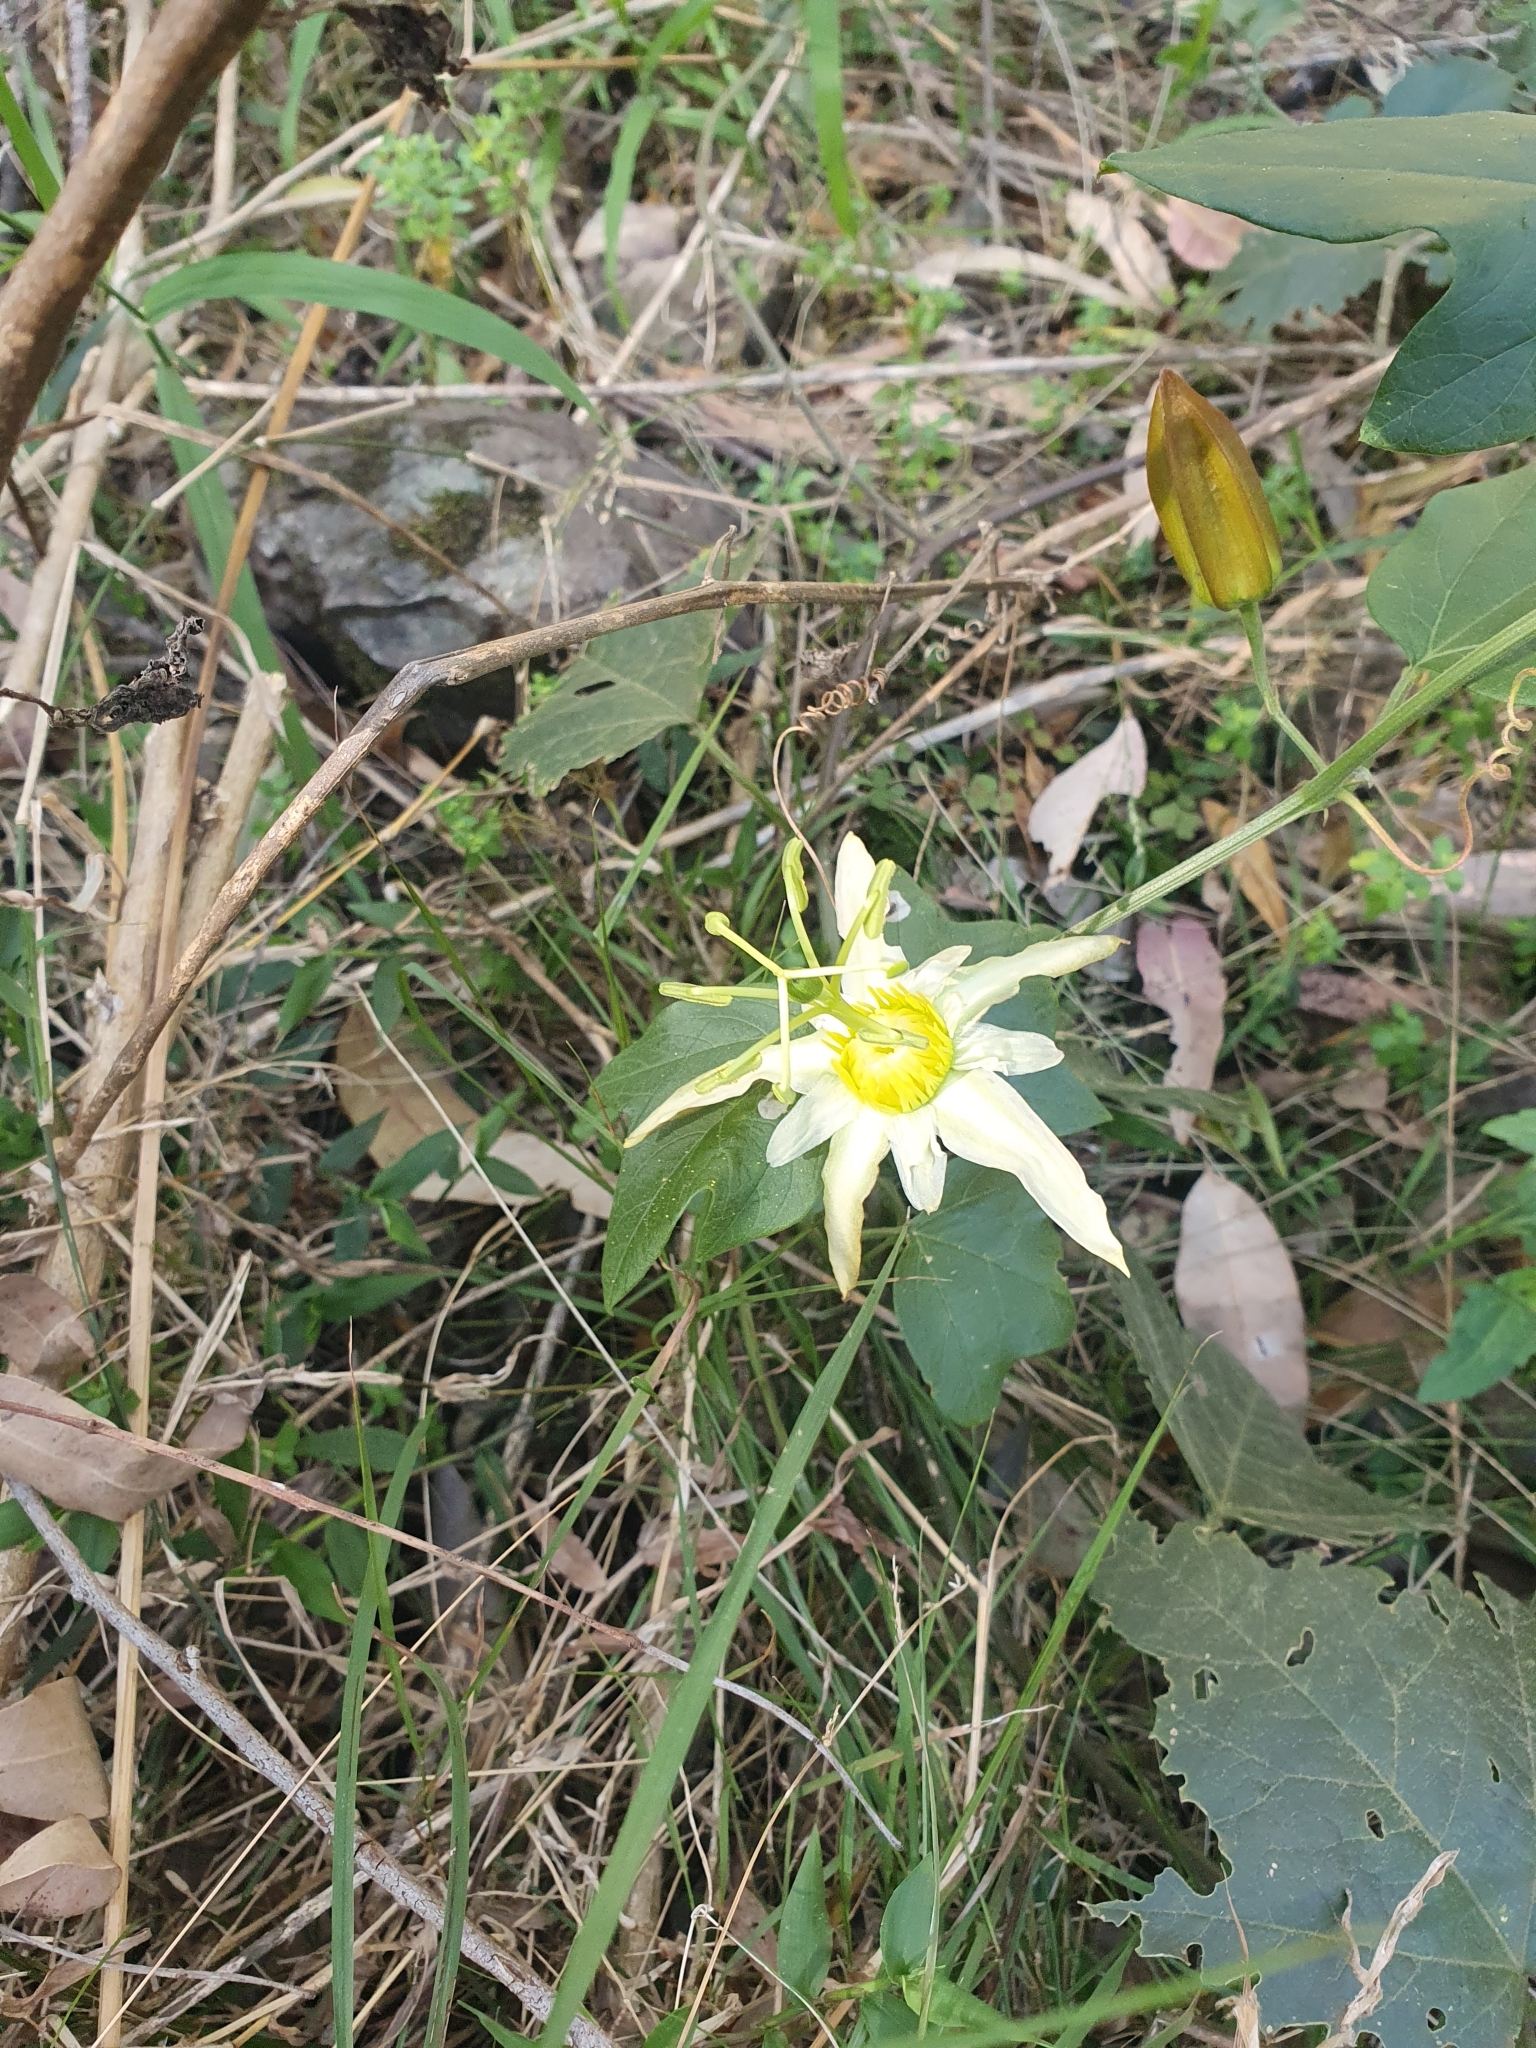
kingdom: Plantae
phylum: Tracheophyta
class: Magnoliopsida
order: Malpighiales
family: Passifloraceae
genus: Passiflora
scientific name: Passiflora herbertiana
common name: Yellow passionflower
